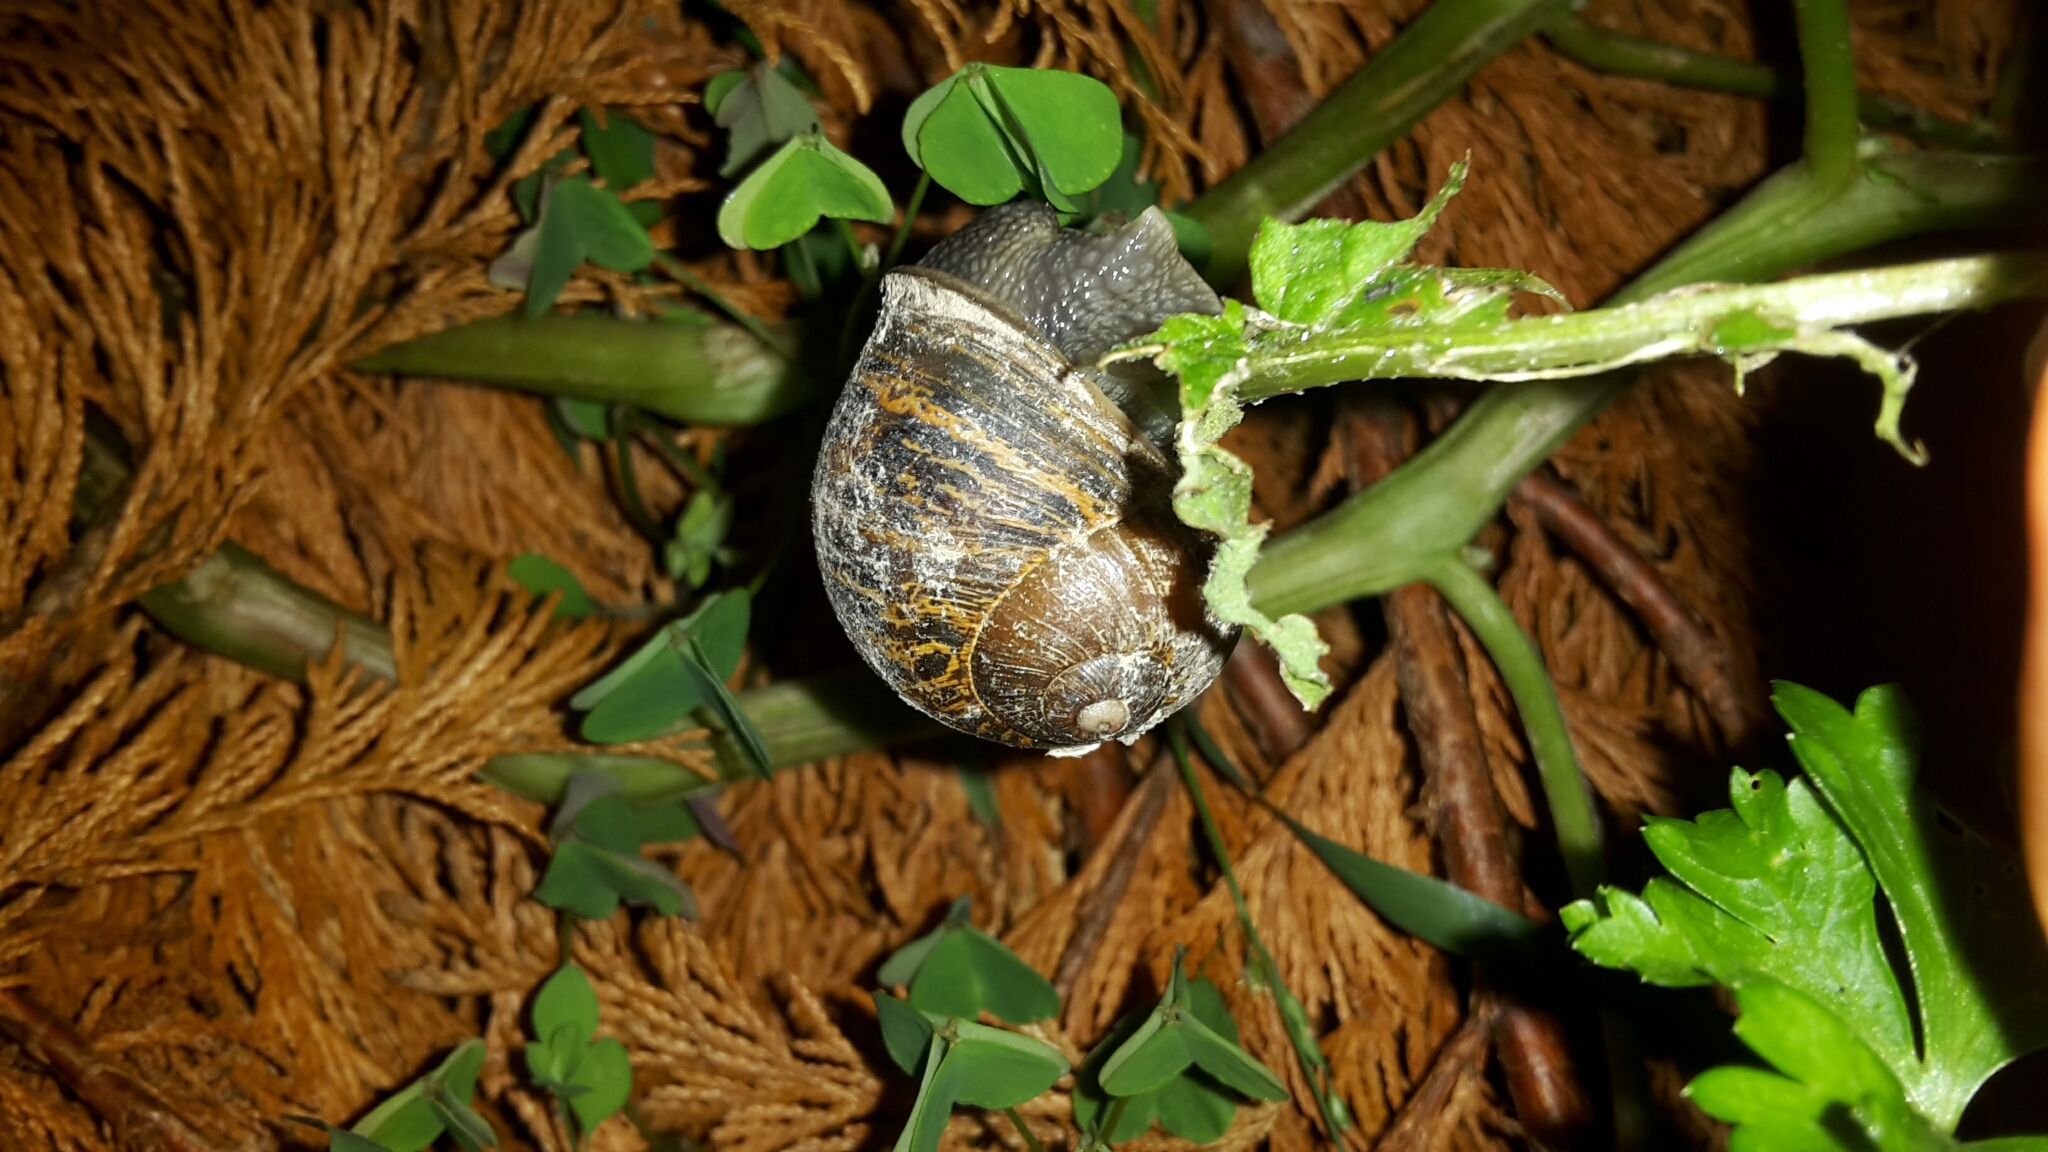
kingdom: Animalia
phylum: Mollusca
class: Gastropoda
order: Stylommatophora
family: Helicidae
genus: Cornu
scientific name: Cornu aspersum
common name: Brown garden snail
